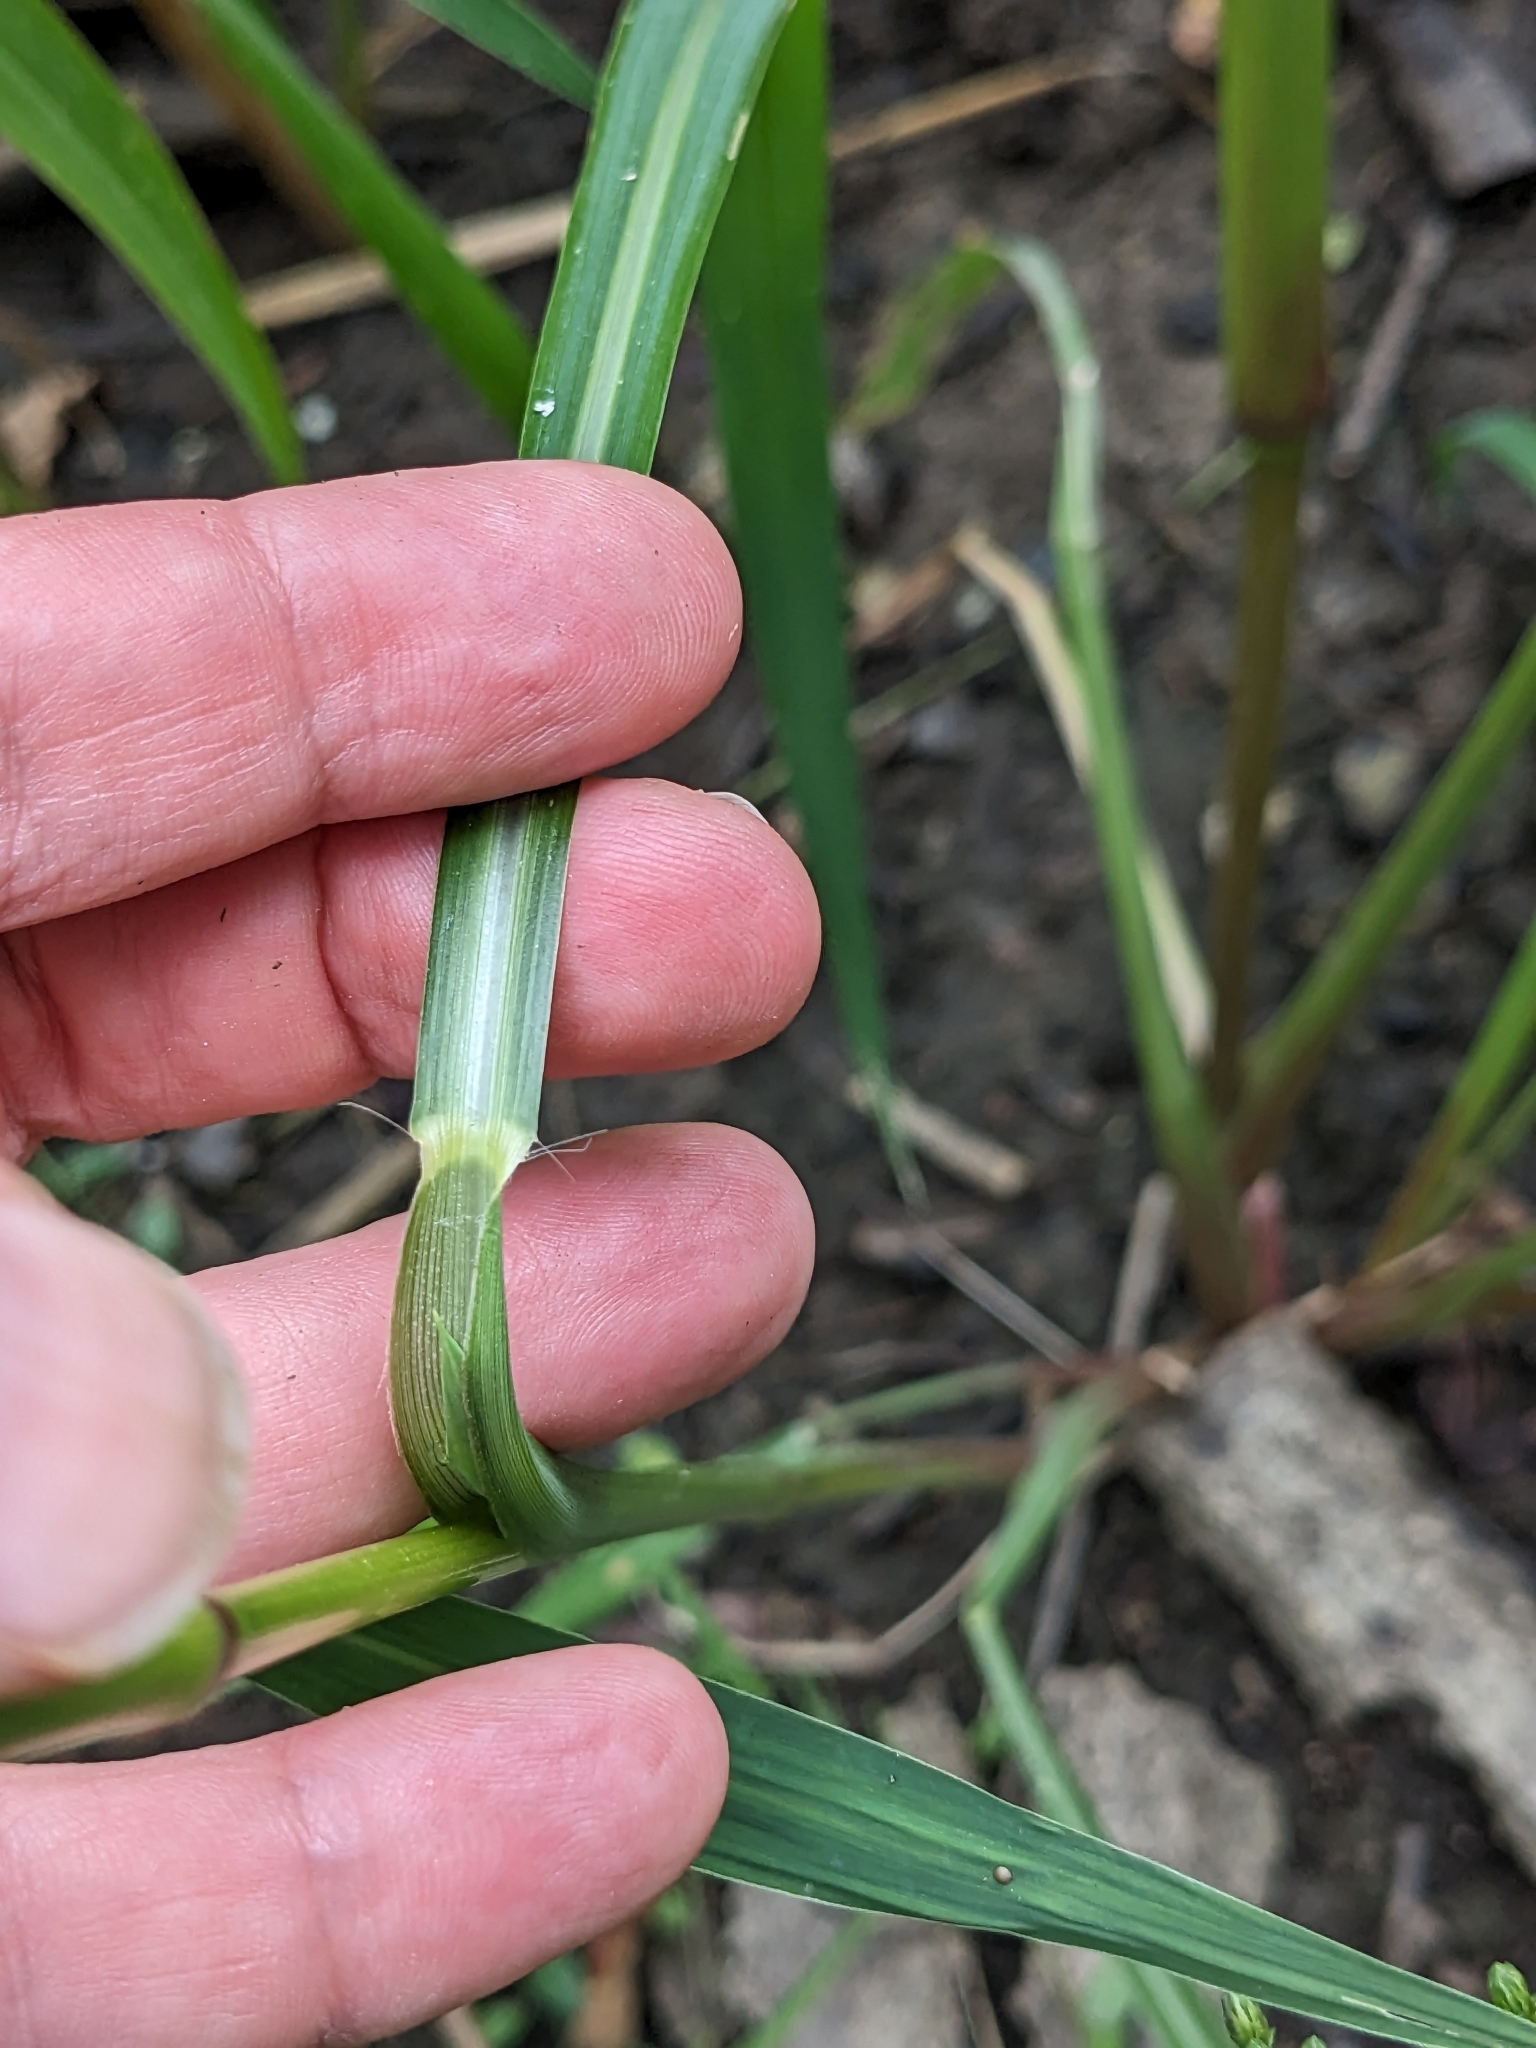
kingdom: Plantae
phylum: Tracheophyta
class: Liliopsida
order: Poales
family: Poaceae
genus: Echinochloa
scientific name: Echinochloa crus-galli
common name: Cockspur
